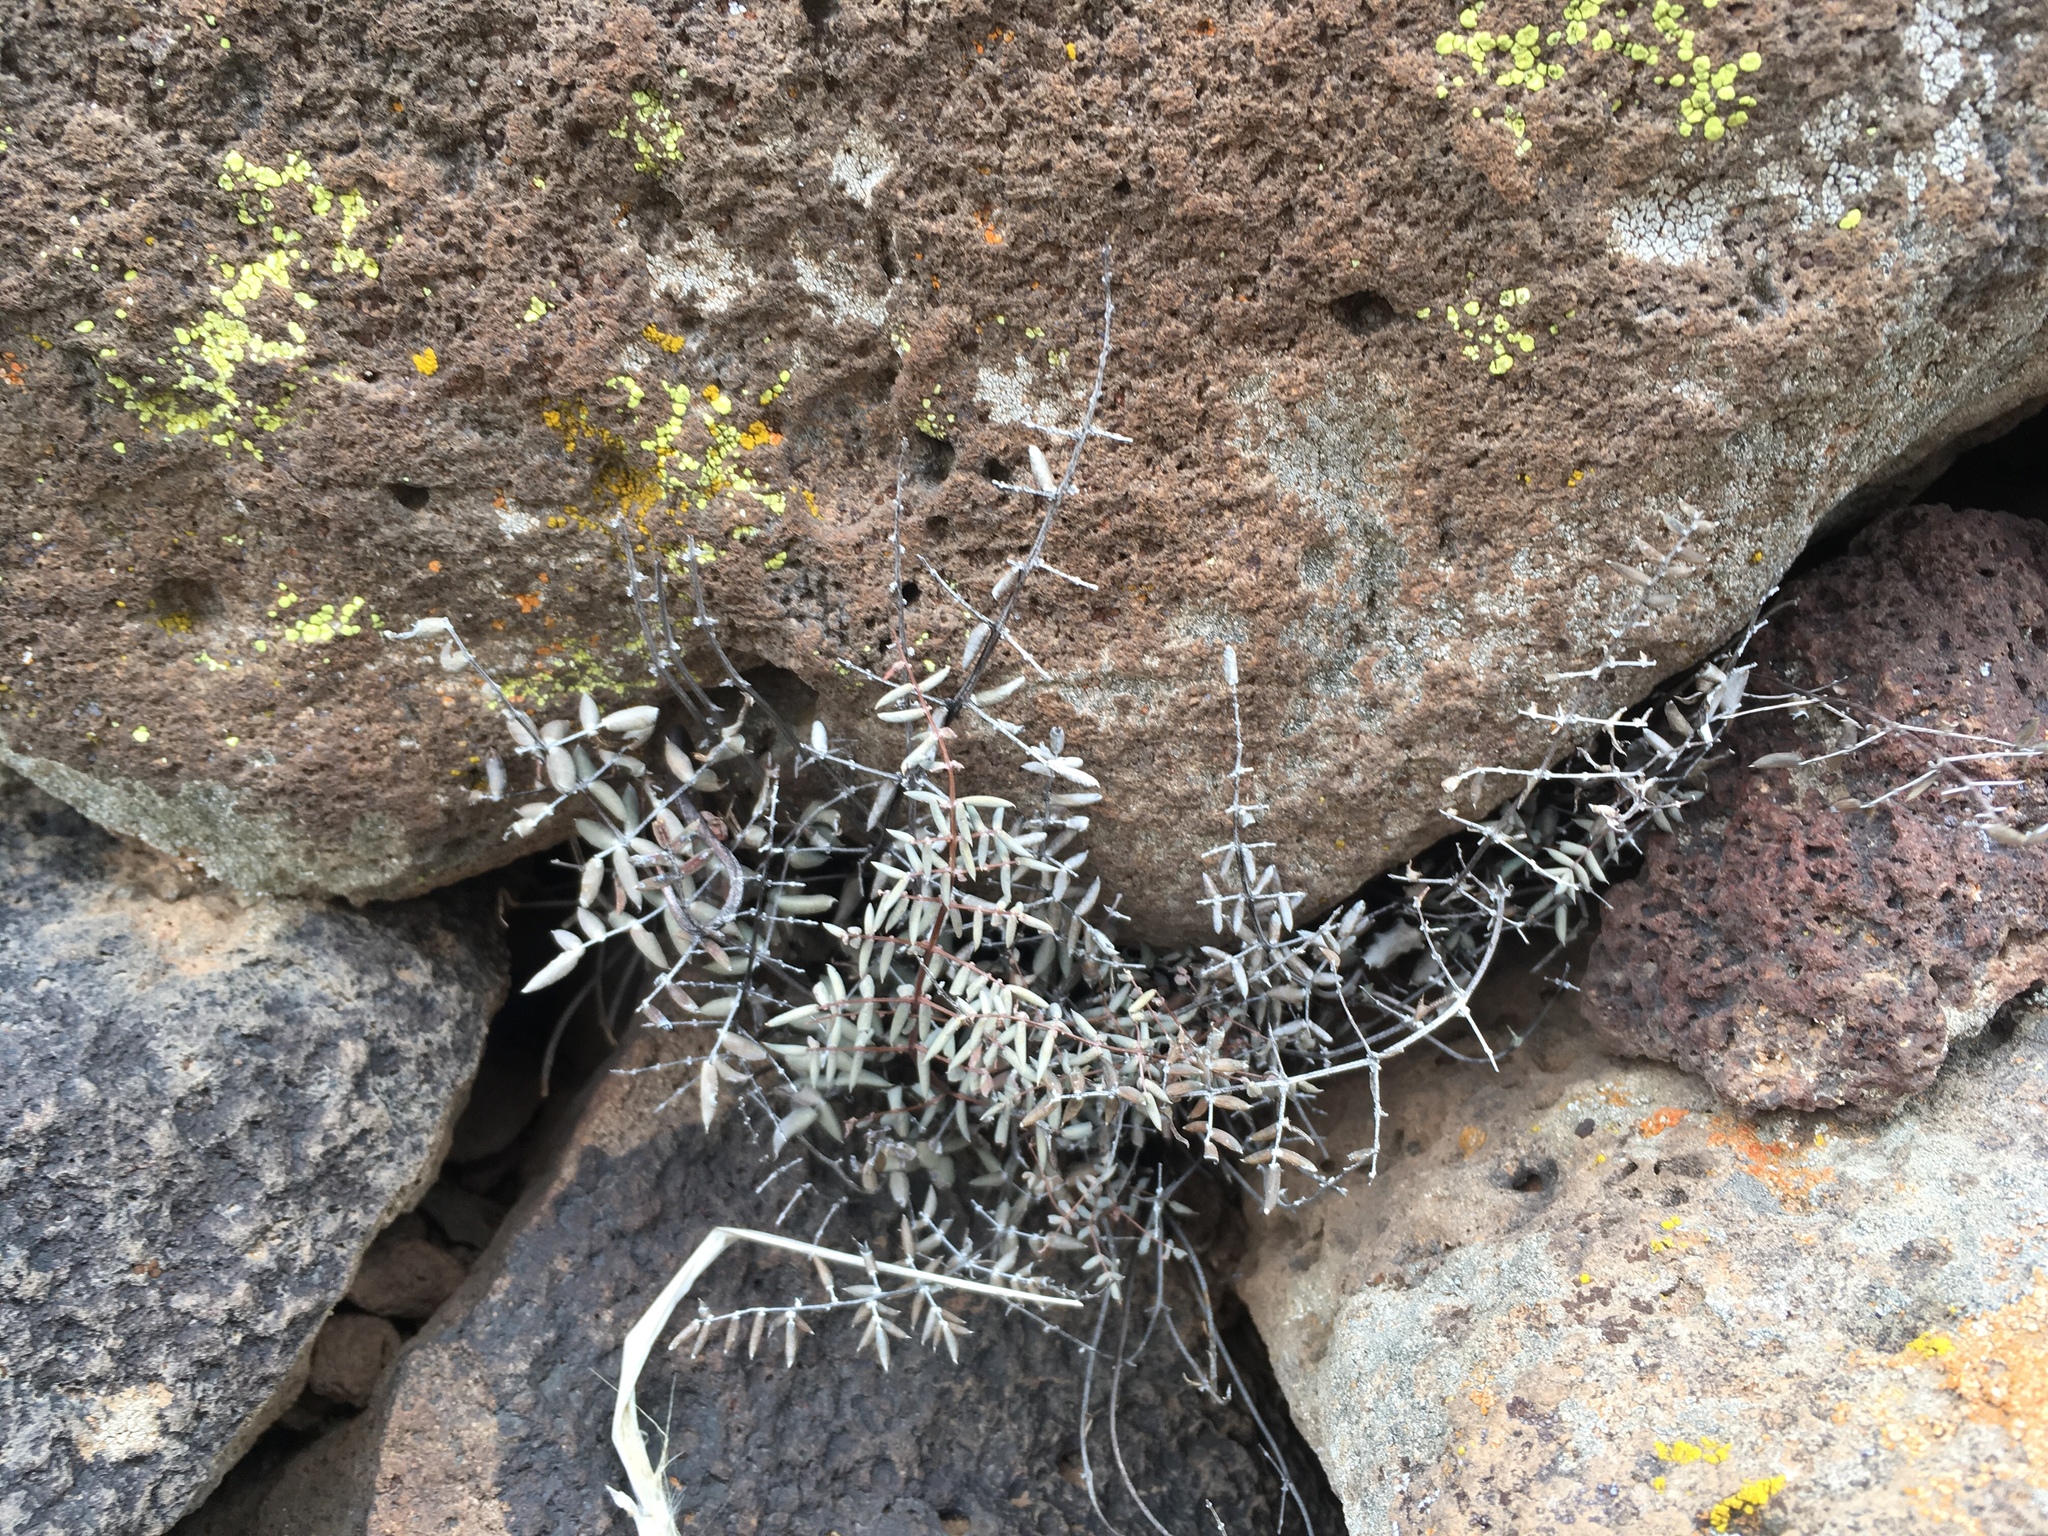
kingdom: Plantae
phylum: Tracheophyta
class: Polypodiopsida
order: Polypodiales
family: Pteridaceae
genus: Pellaea
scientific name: Pellaea truncata
